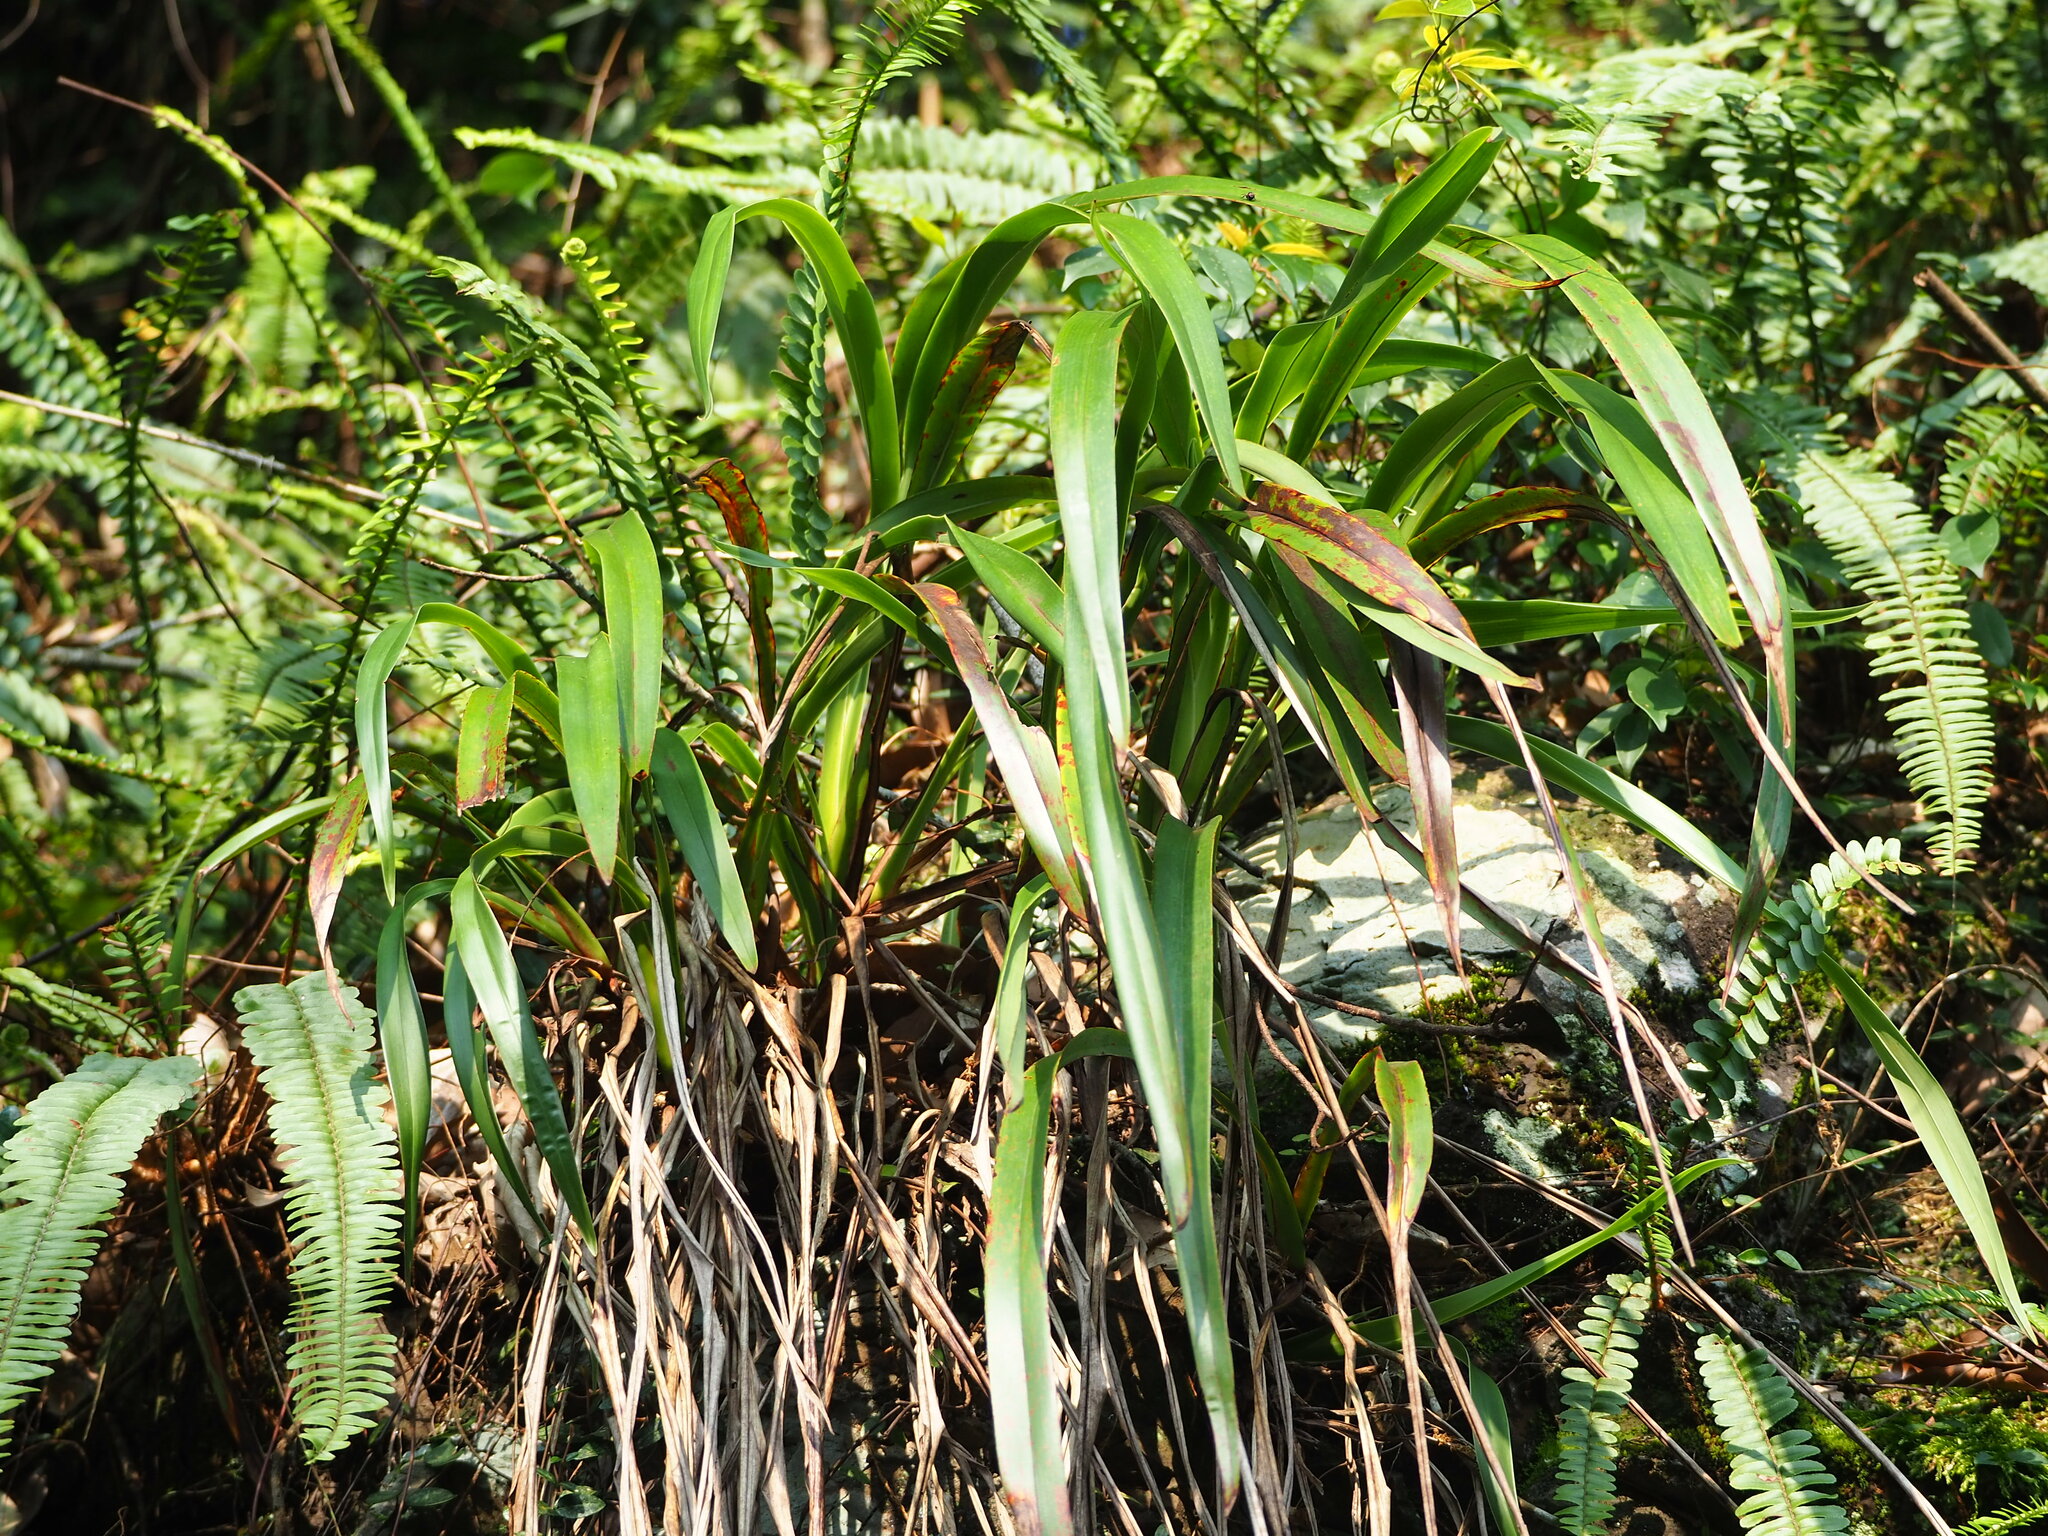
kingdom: Plantae
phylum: Tracheophyta
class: Liliopsida
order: Asparagales
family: Asphodelaceae
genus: Dianella
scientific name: Dianella ensifolia
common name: New zealand lilyplant
